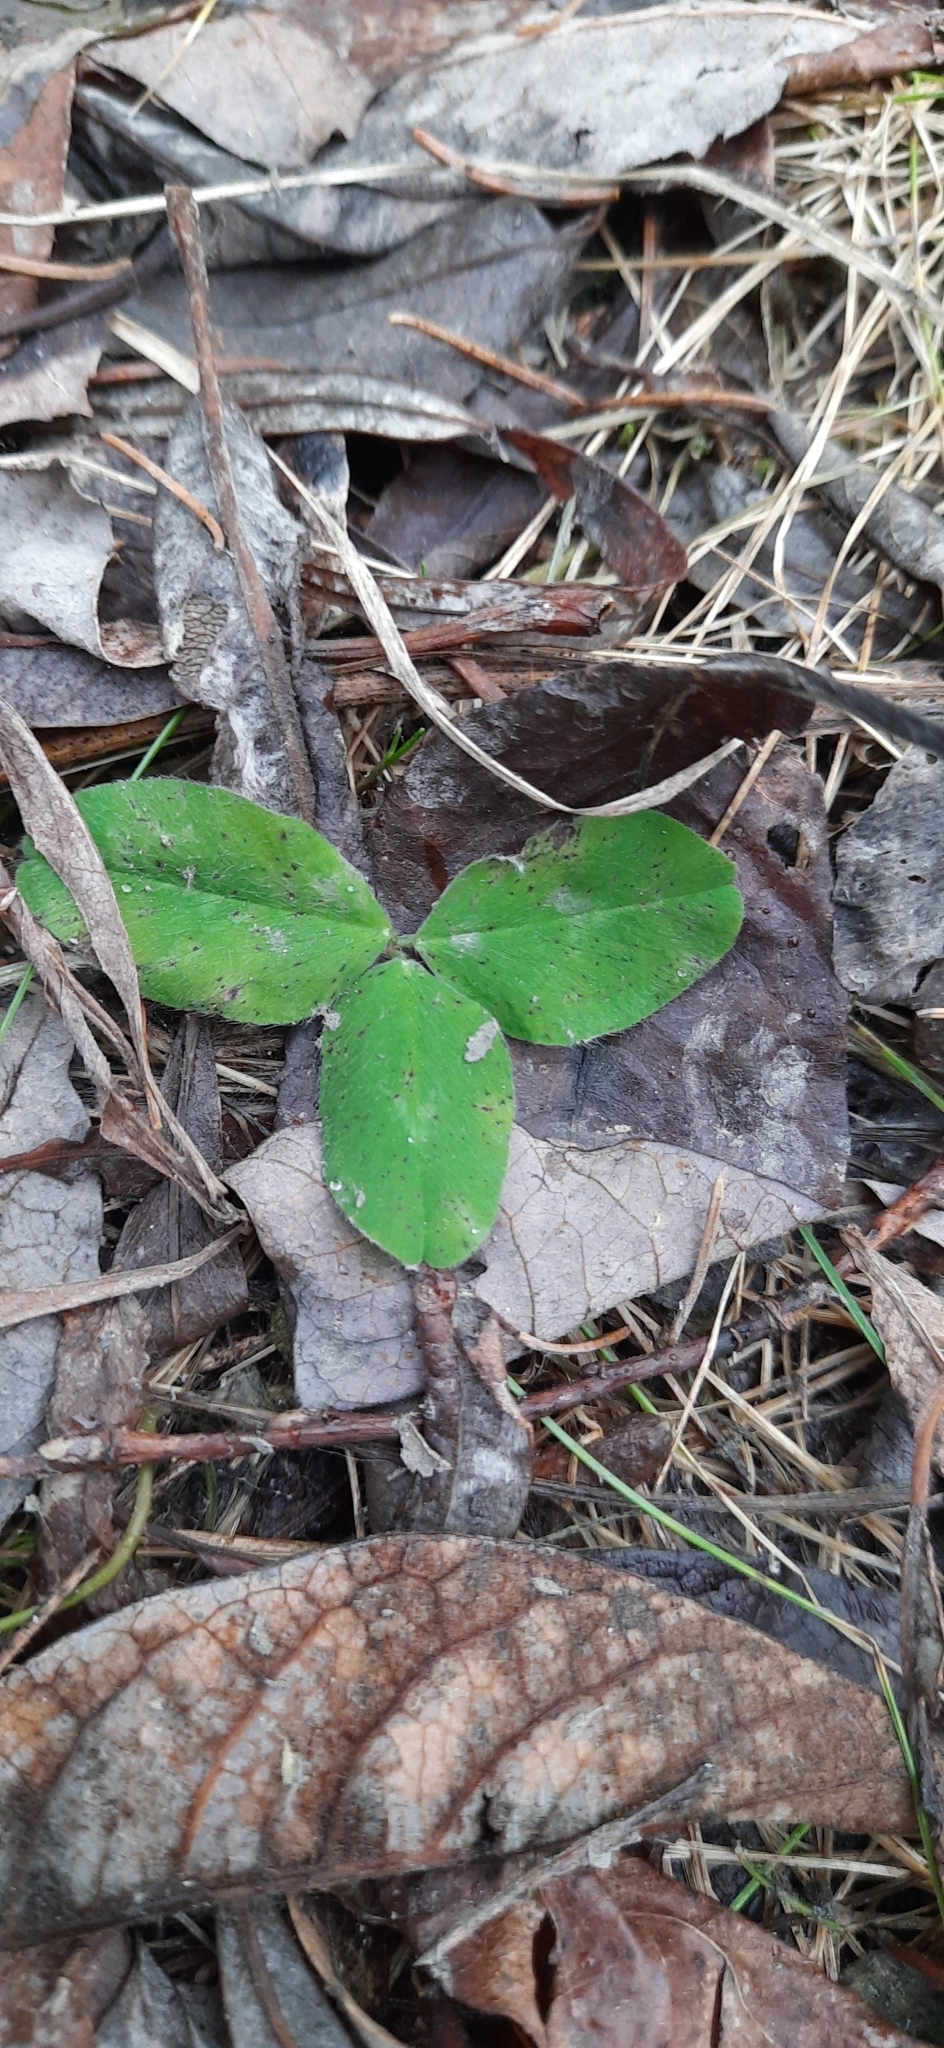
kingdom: Plantae
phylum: Tracheophyta
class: Magnoliopsida
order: Fabales
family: Fabaceae
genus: Trifolium
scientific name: Trifolium pratense
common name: Red clover
